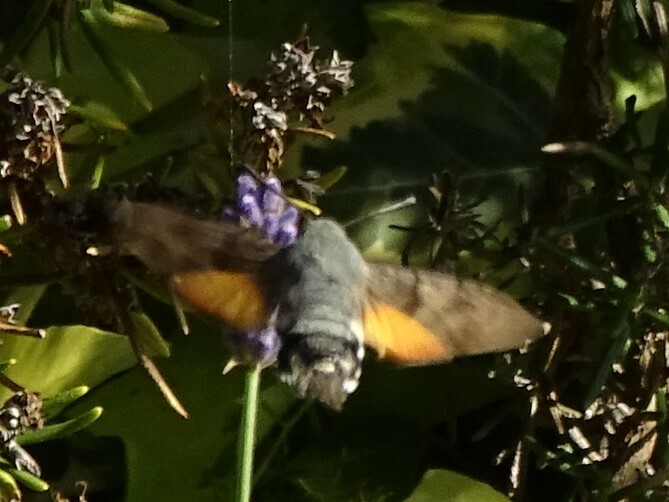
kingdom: Animalia
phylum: Arthropoda
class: Insecta
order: Lepidoptera
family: Sphingidae
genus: Macroglossum
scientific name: Macroglossum stellatarum
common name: Humming-bird hawk-moth
